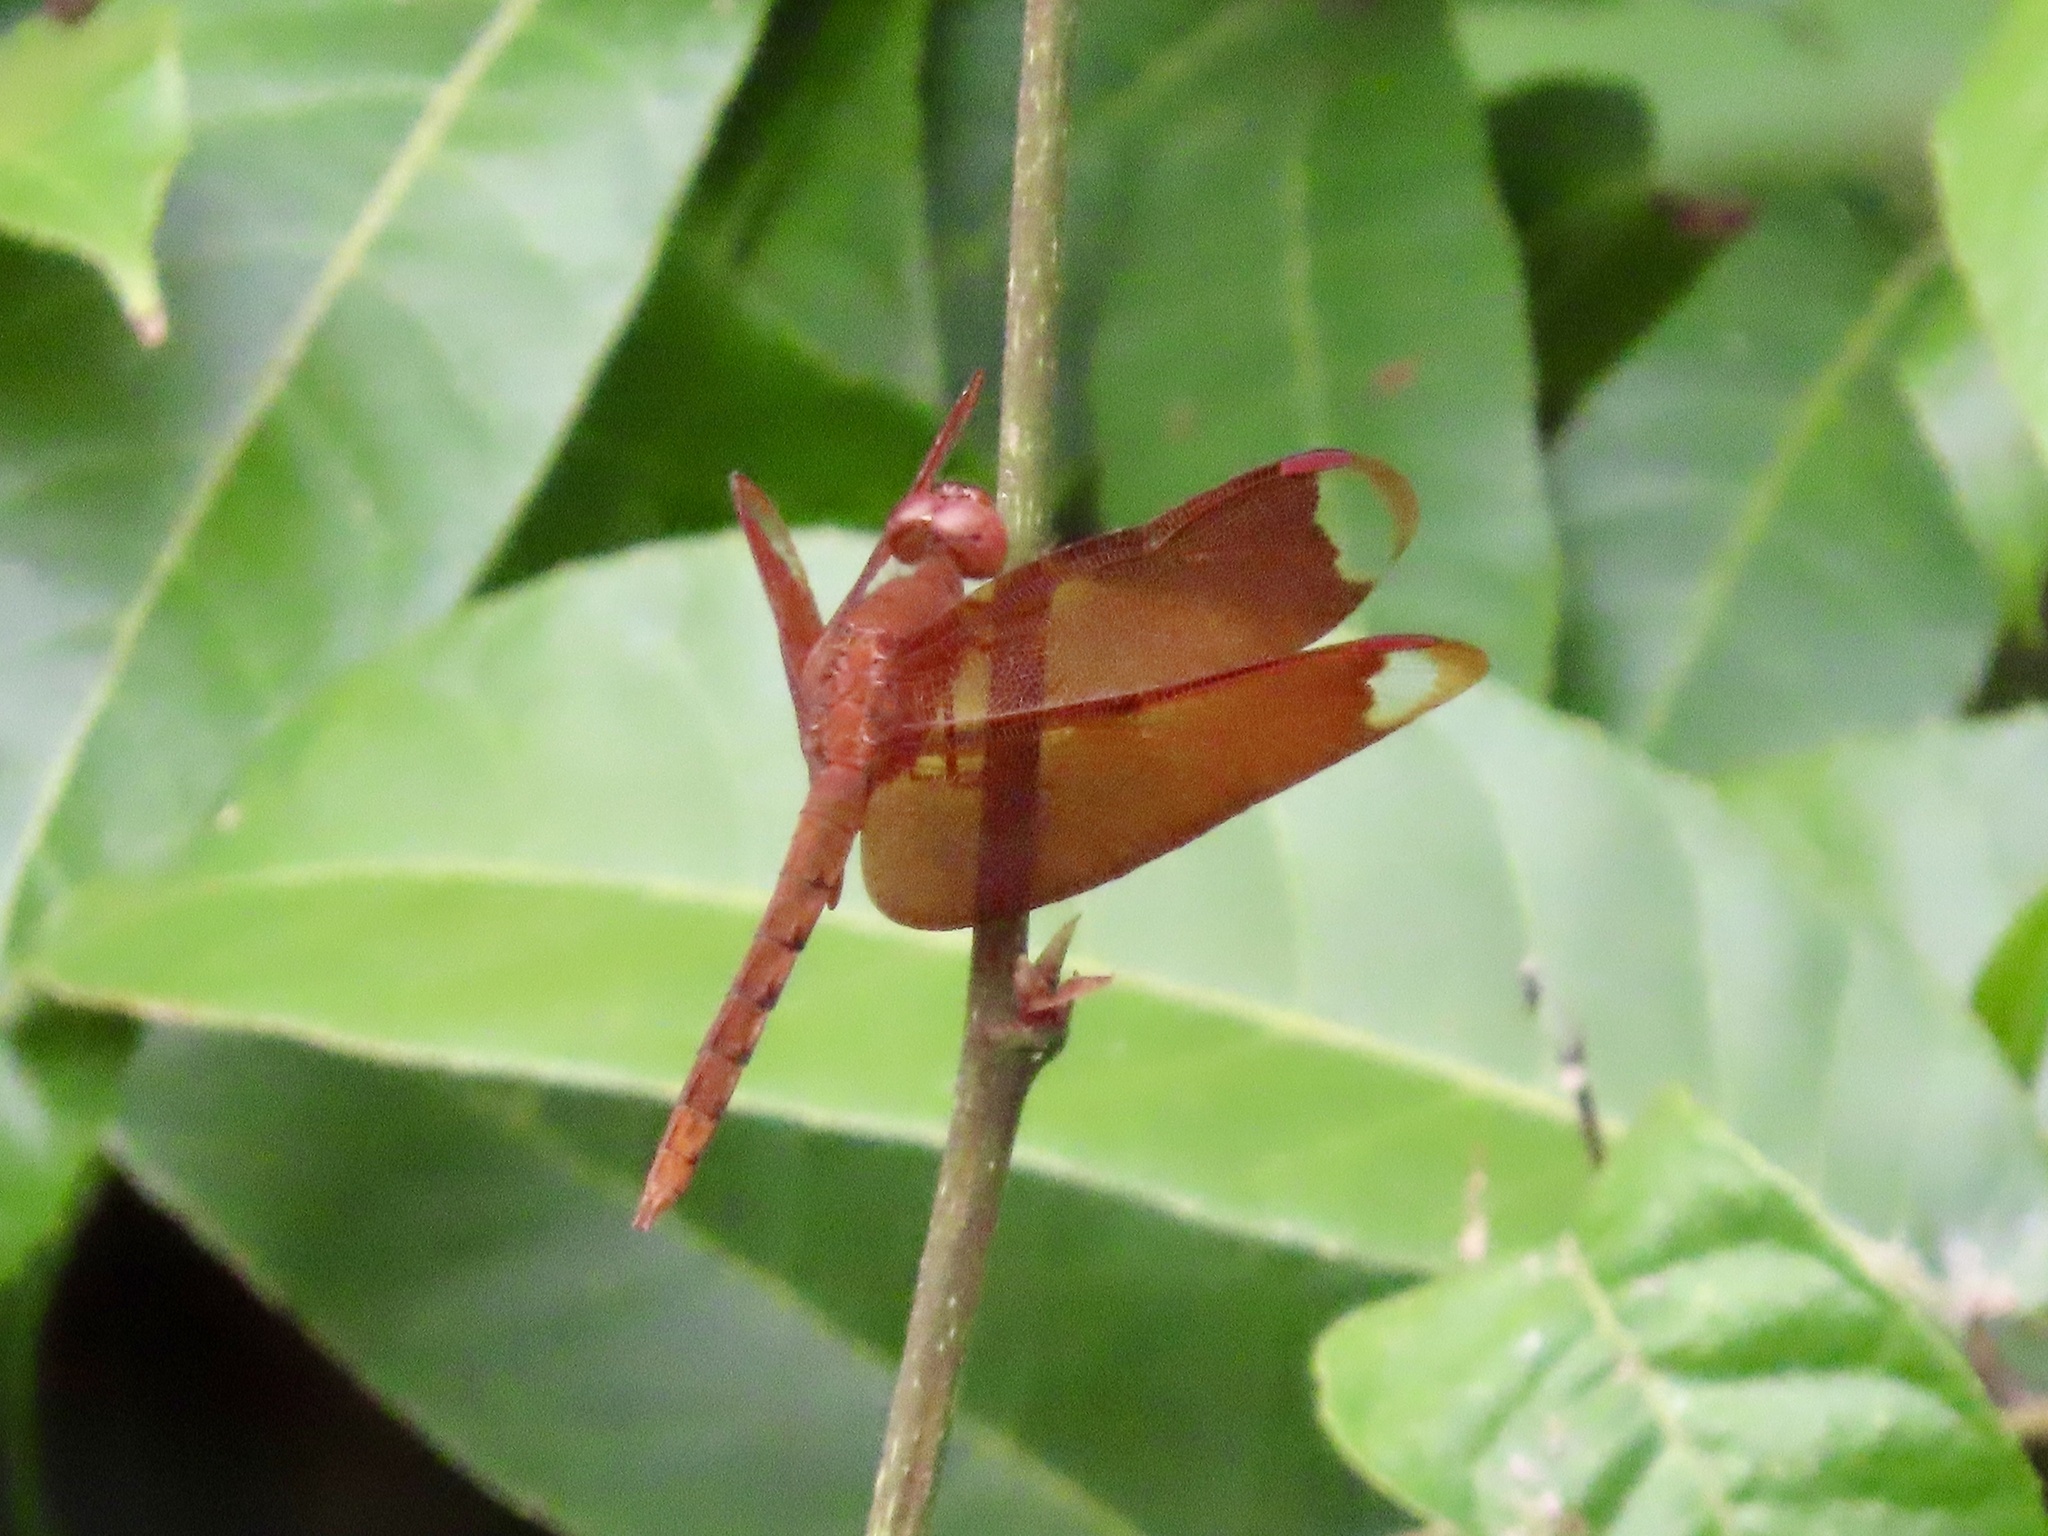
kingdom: Animalia
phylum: Arthropoda
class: Insecta
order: Odonata
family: Libellulidae
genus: Neurothemis
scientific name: Neurothemis fulvia
